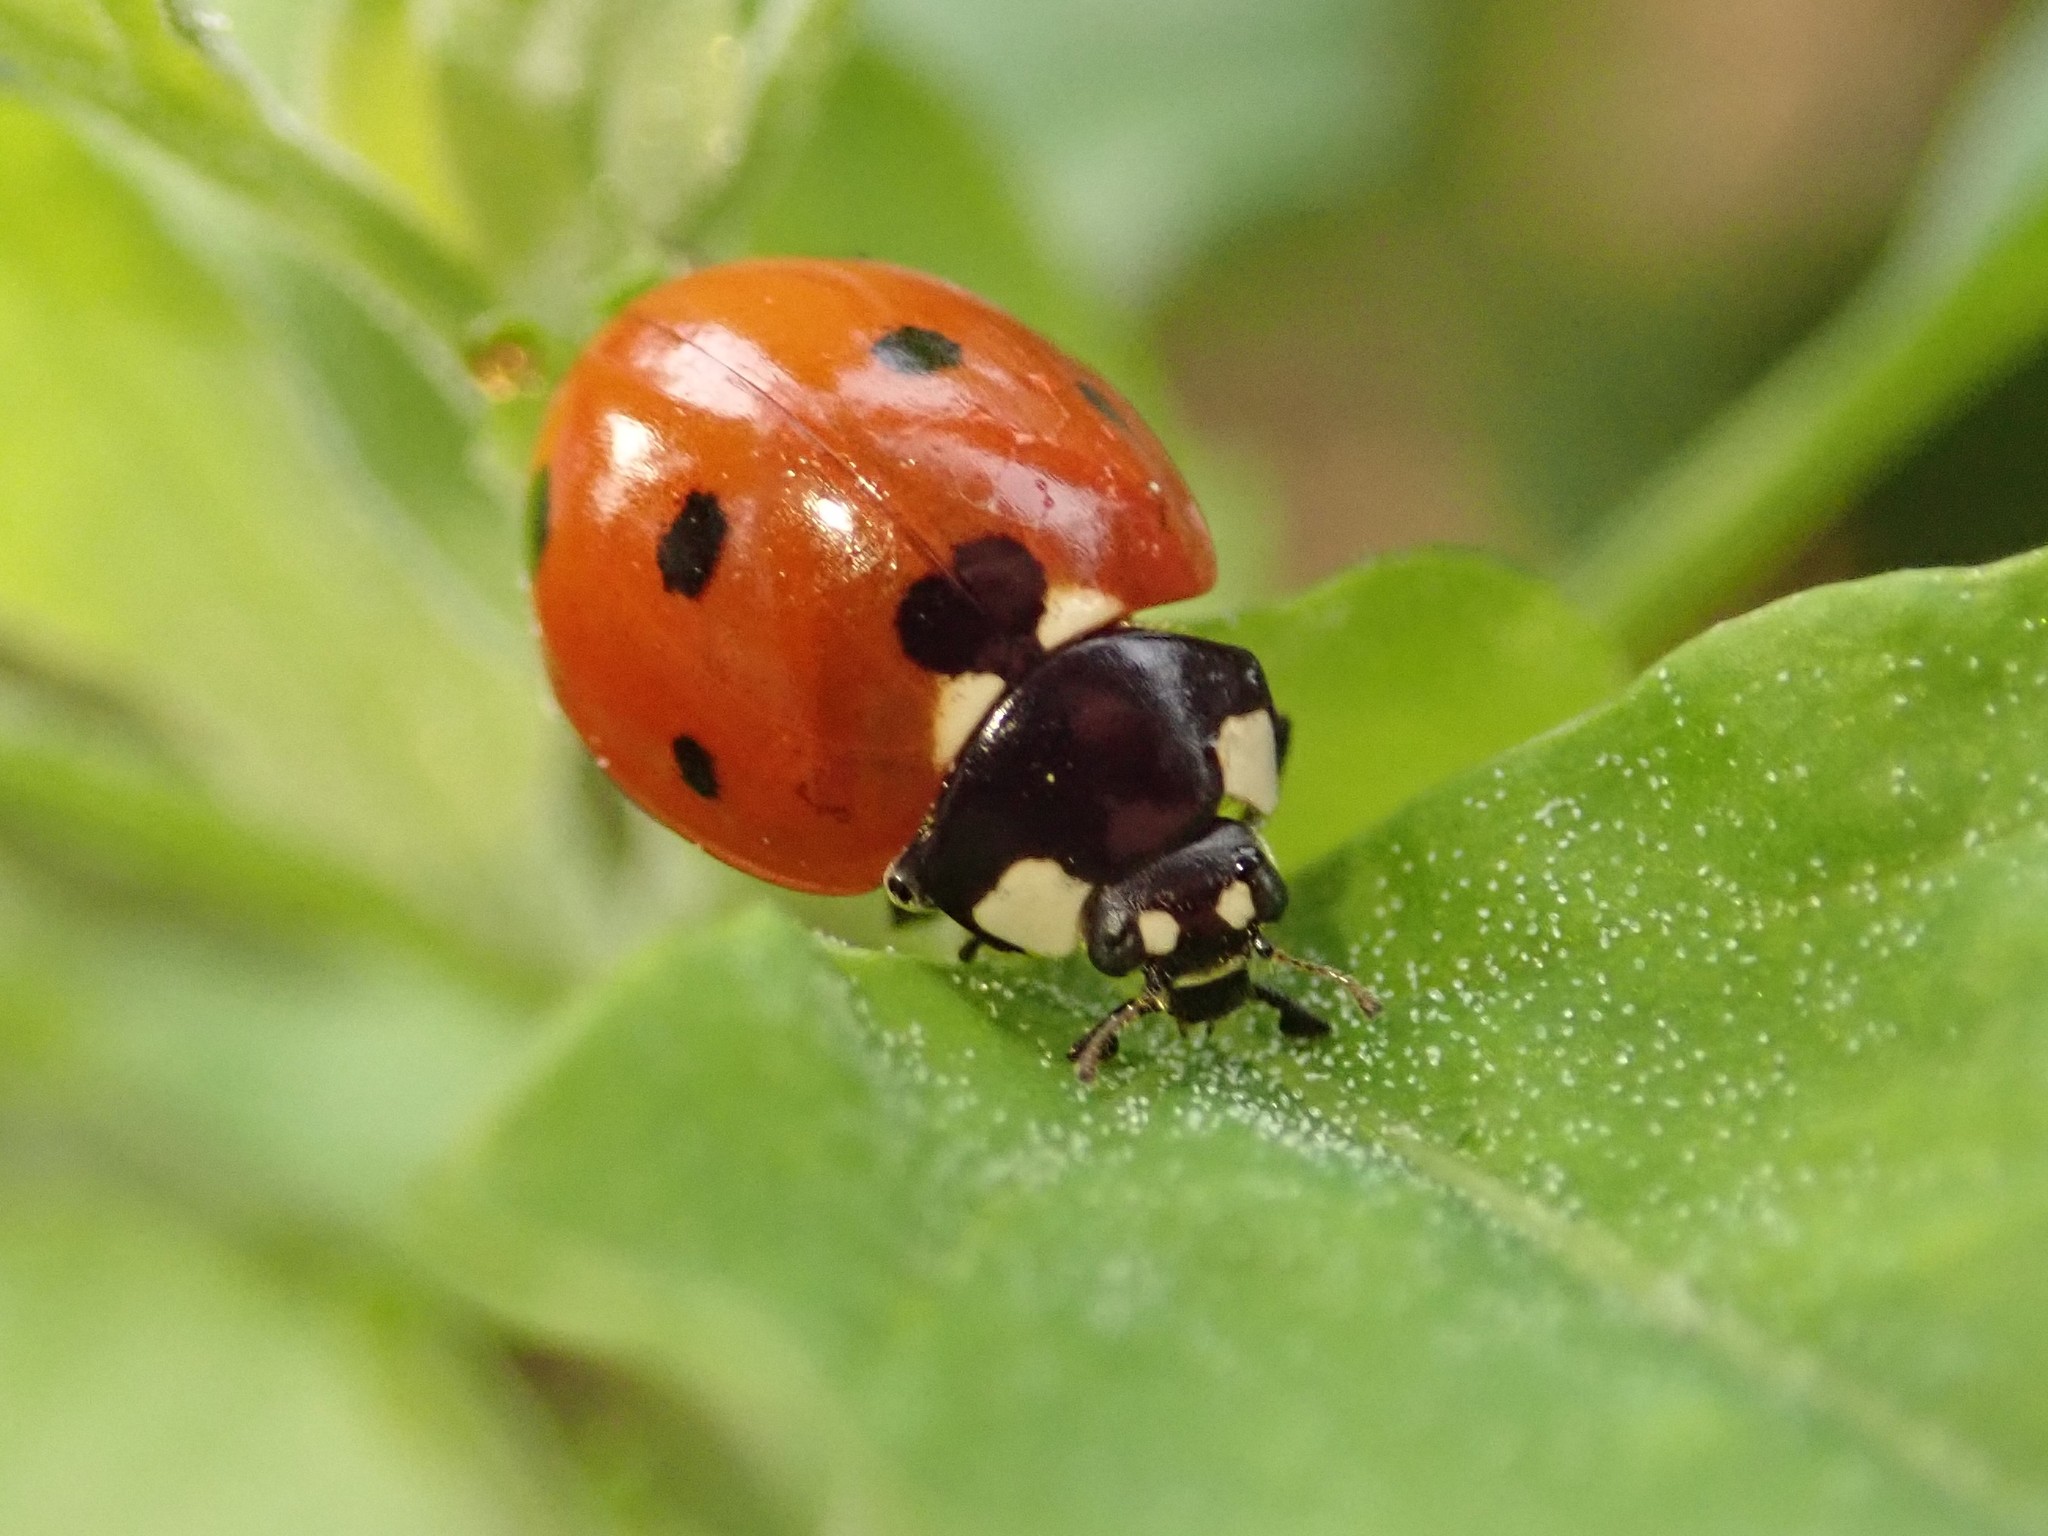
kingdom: Animalia
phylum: Arthropoda
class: Insecta
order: Coleoptera
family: Coccinellidae
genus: Coccinella
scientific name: Coccinella septempunctata
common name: Sevenspotted lady beetle
